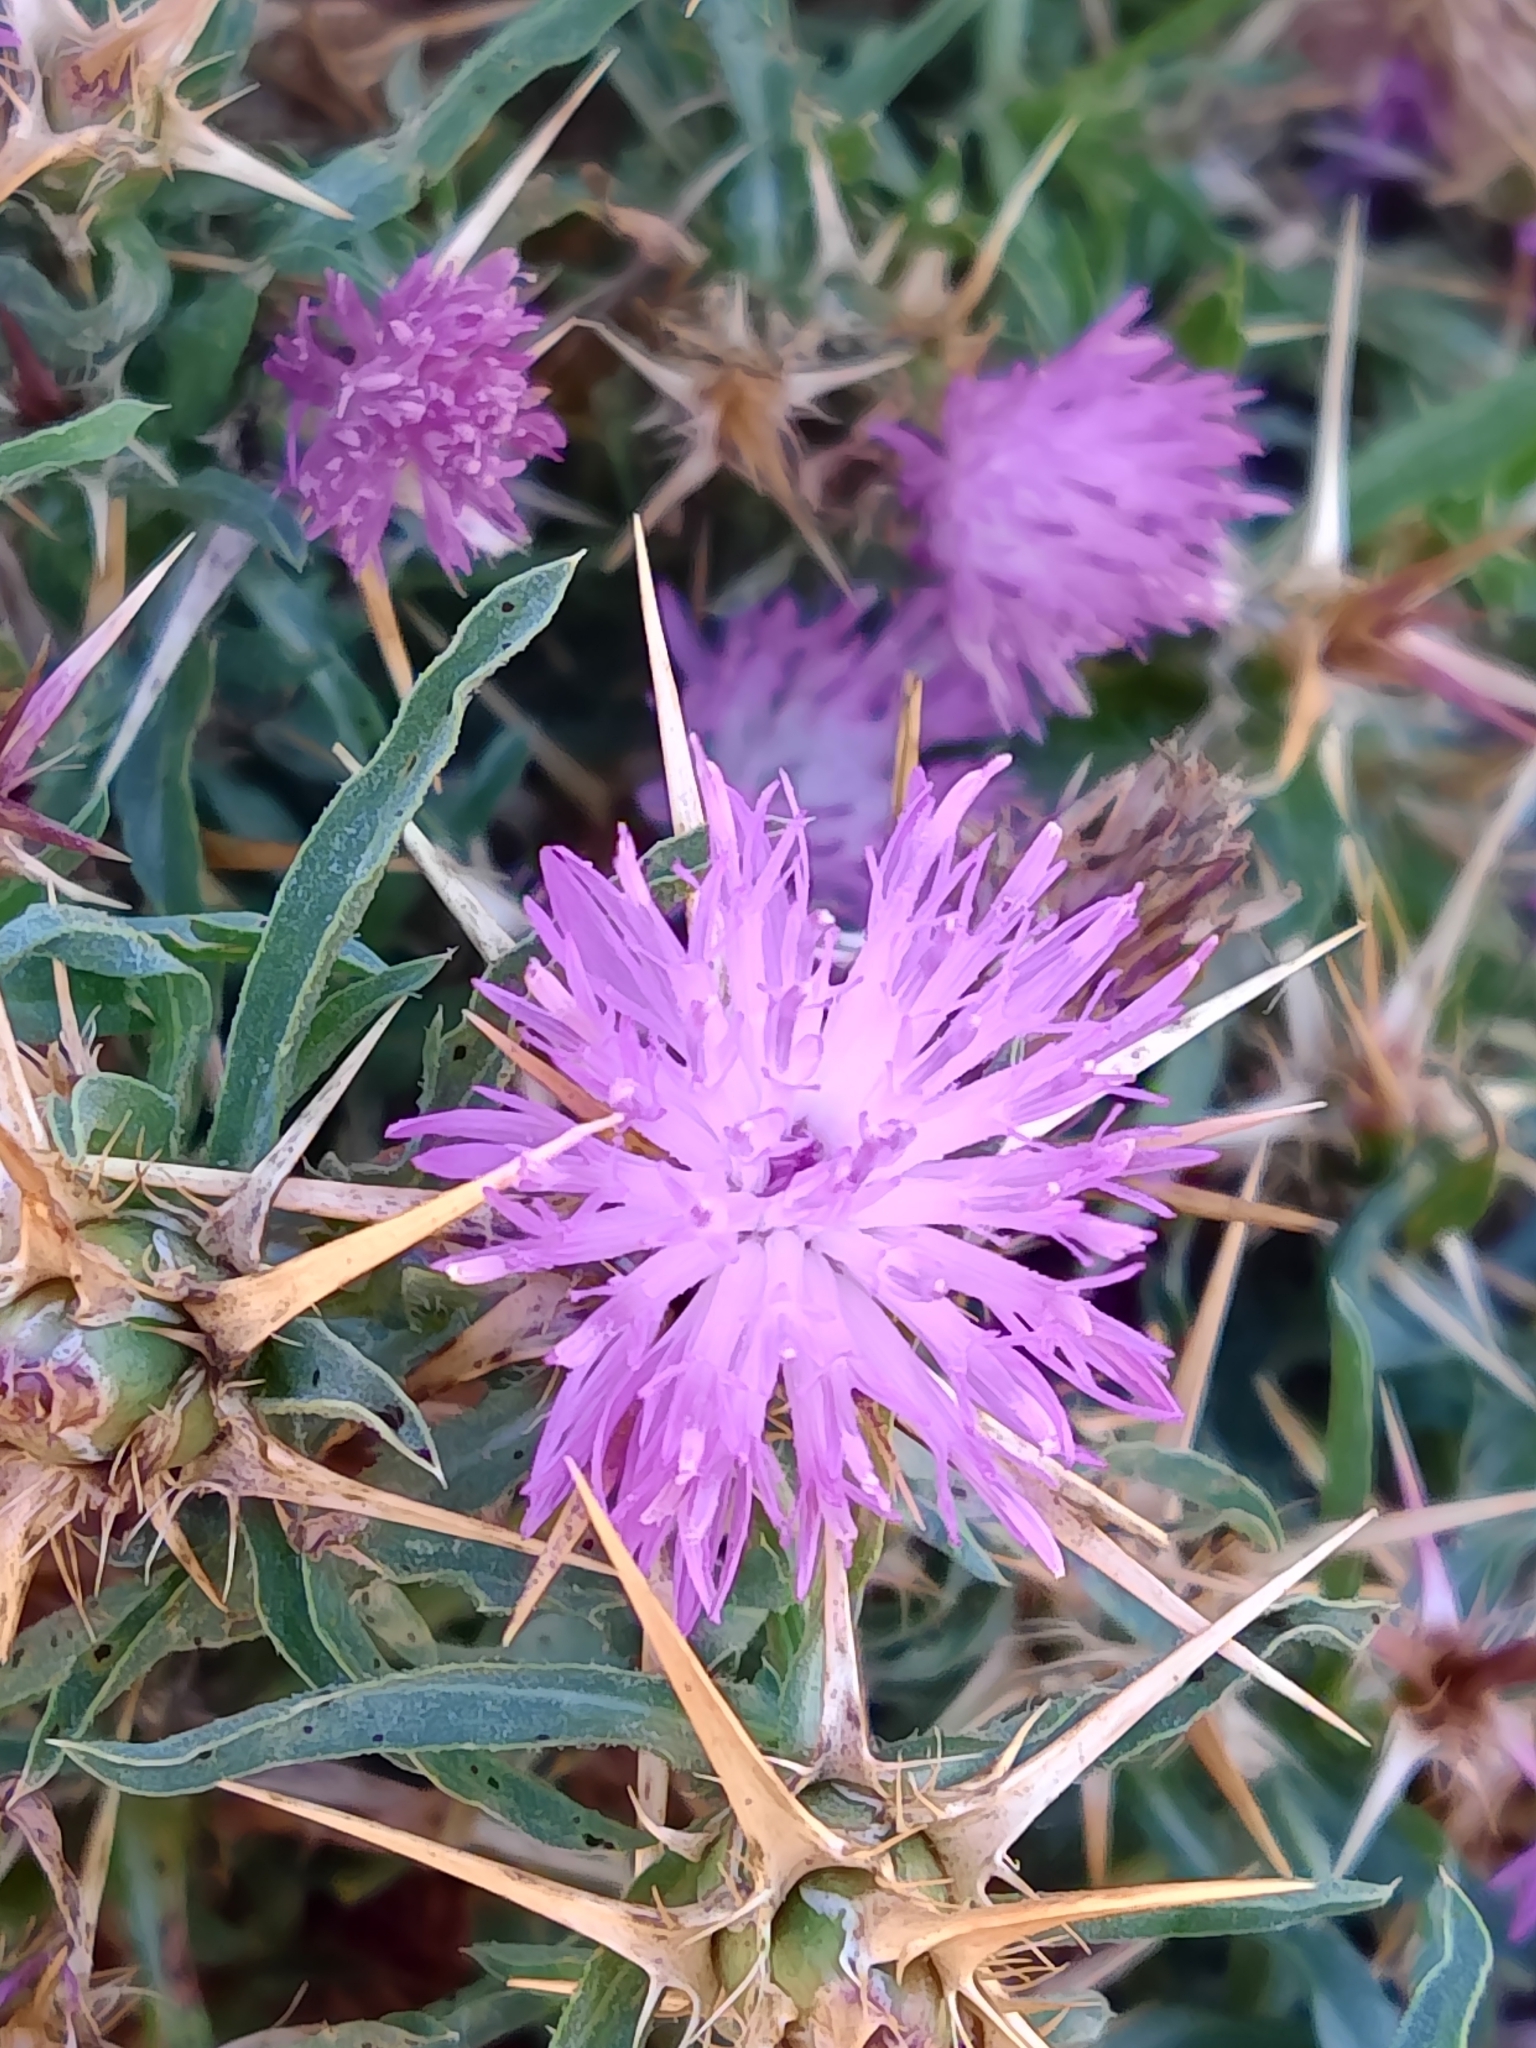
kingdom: Plantae
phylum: Tracheophyta
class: Magnoliopsida
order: Asterales
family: Asteraceae
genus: Centaurea
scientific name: Centaurea calcitrapa
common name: Red star-thistle
